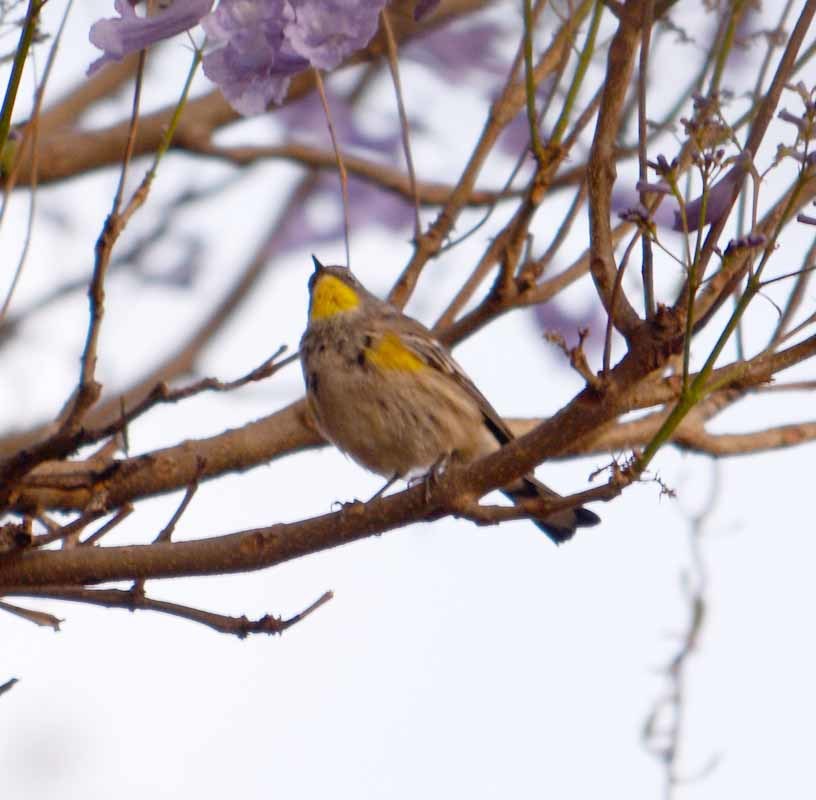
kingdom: Animalia
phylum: Chordata
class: Aves
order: Passeriformes
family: Parulidae
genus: Setophaga
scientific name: Setophaga coronata
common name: Myrtle warbler
